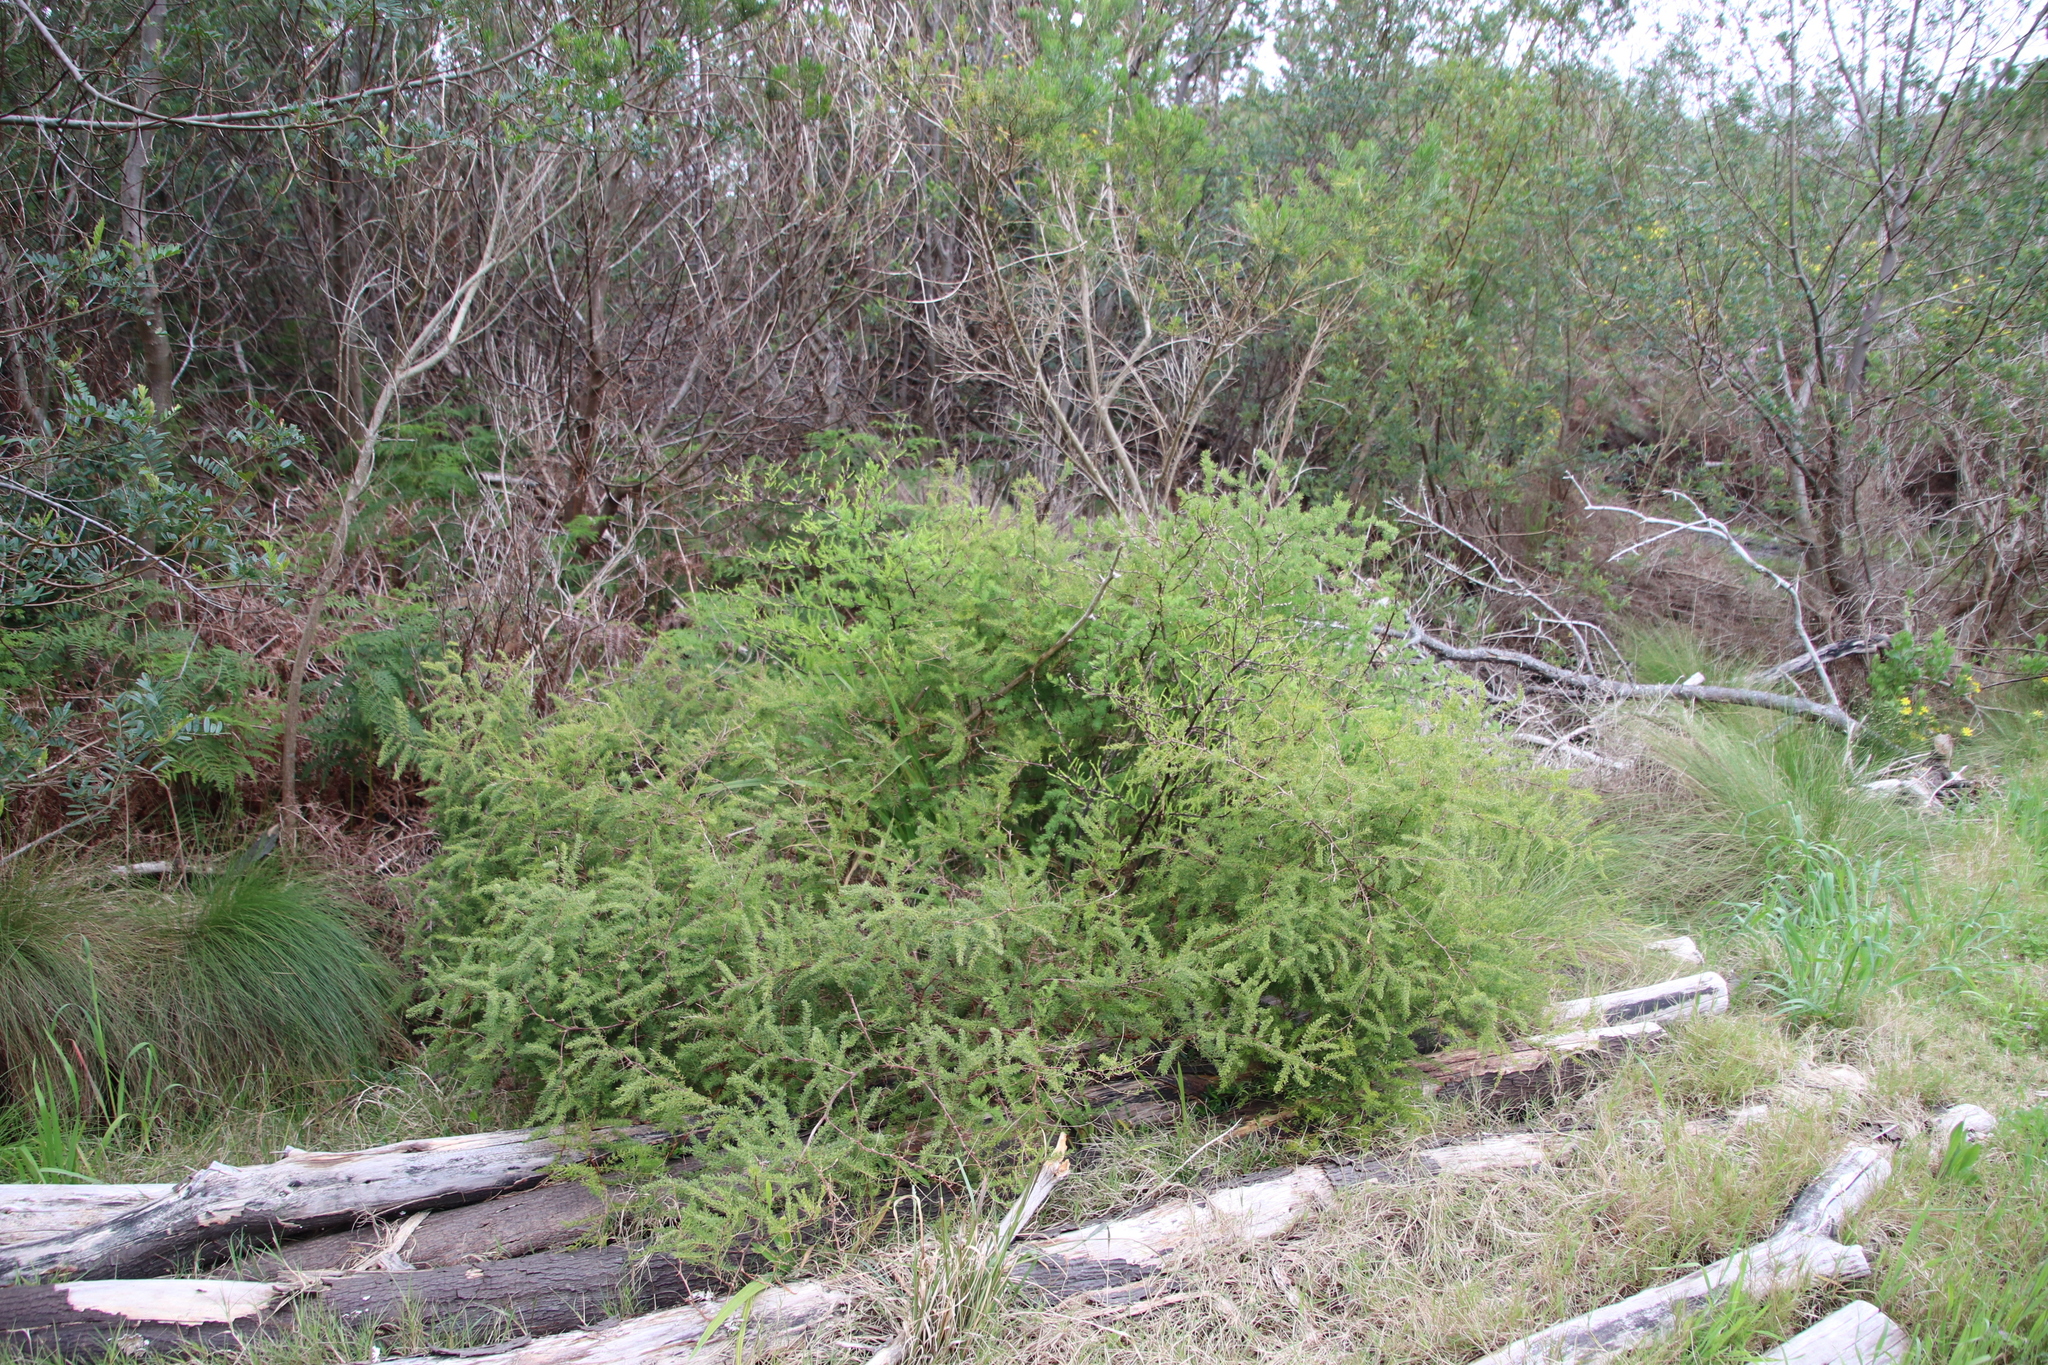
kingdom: Plantae
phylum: Tracheophyta
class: Liliopsida
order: Asparagales
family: Asparagaceae
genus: Asparagus
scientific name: Asparagus rubicundus
